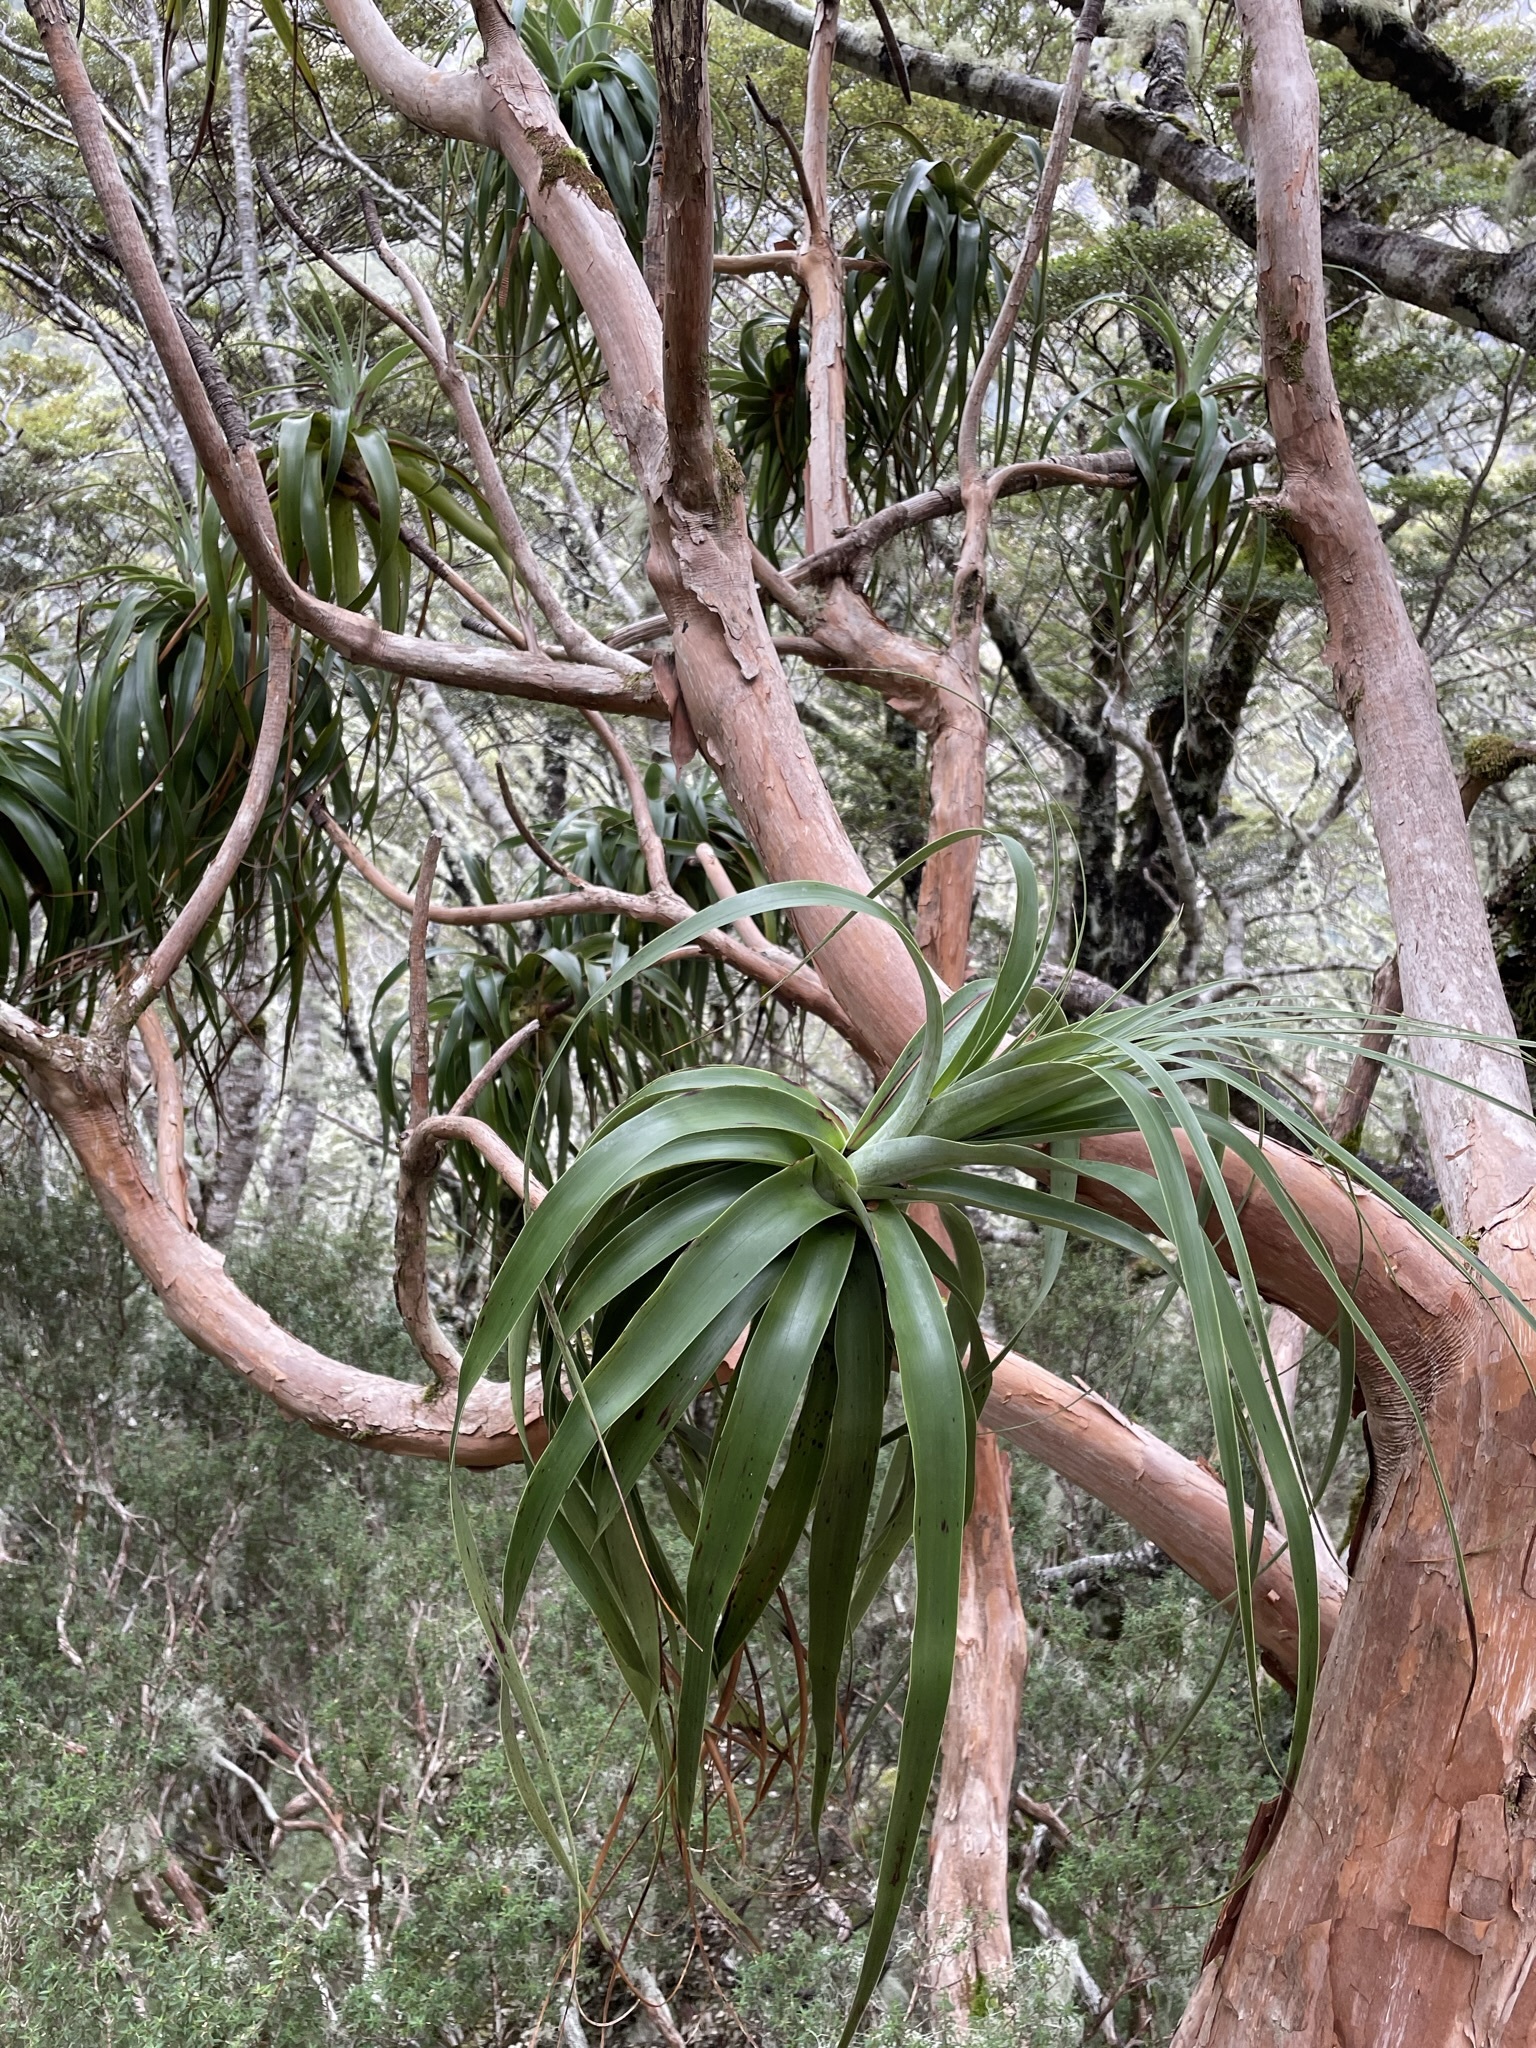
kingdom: Plantae
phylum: Tracheophyta
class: Magnoliopsida
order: Ericales
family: Ericaceae
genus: Dracophyllum
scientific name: Dracophyllum traversii
